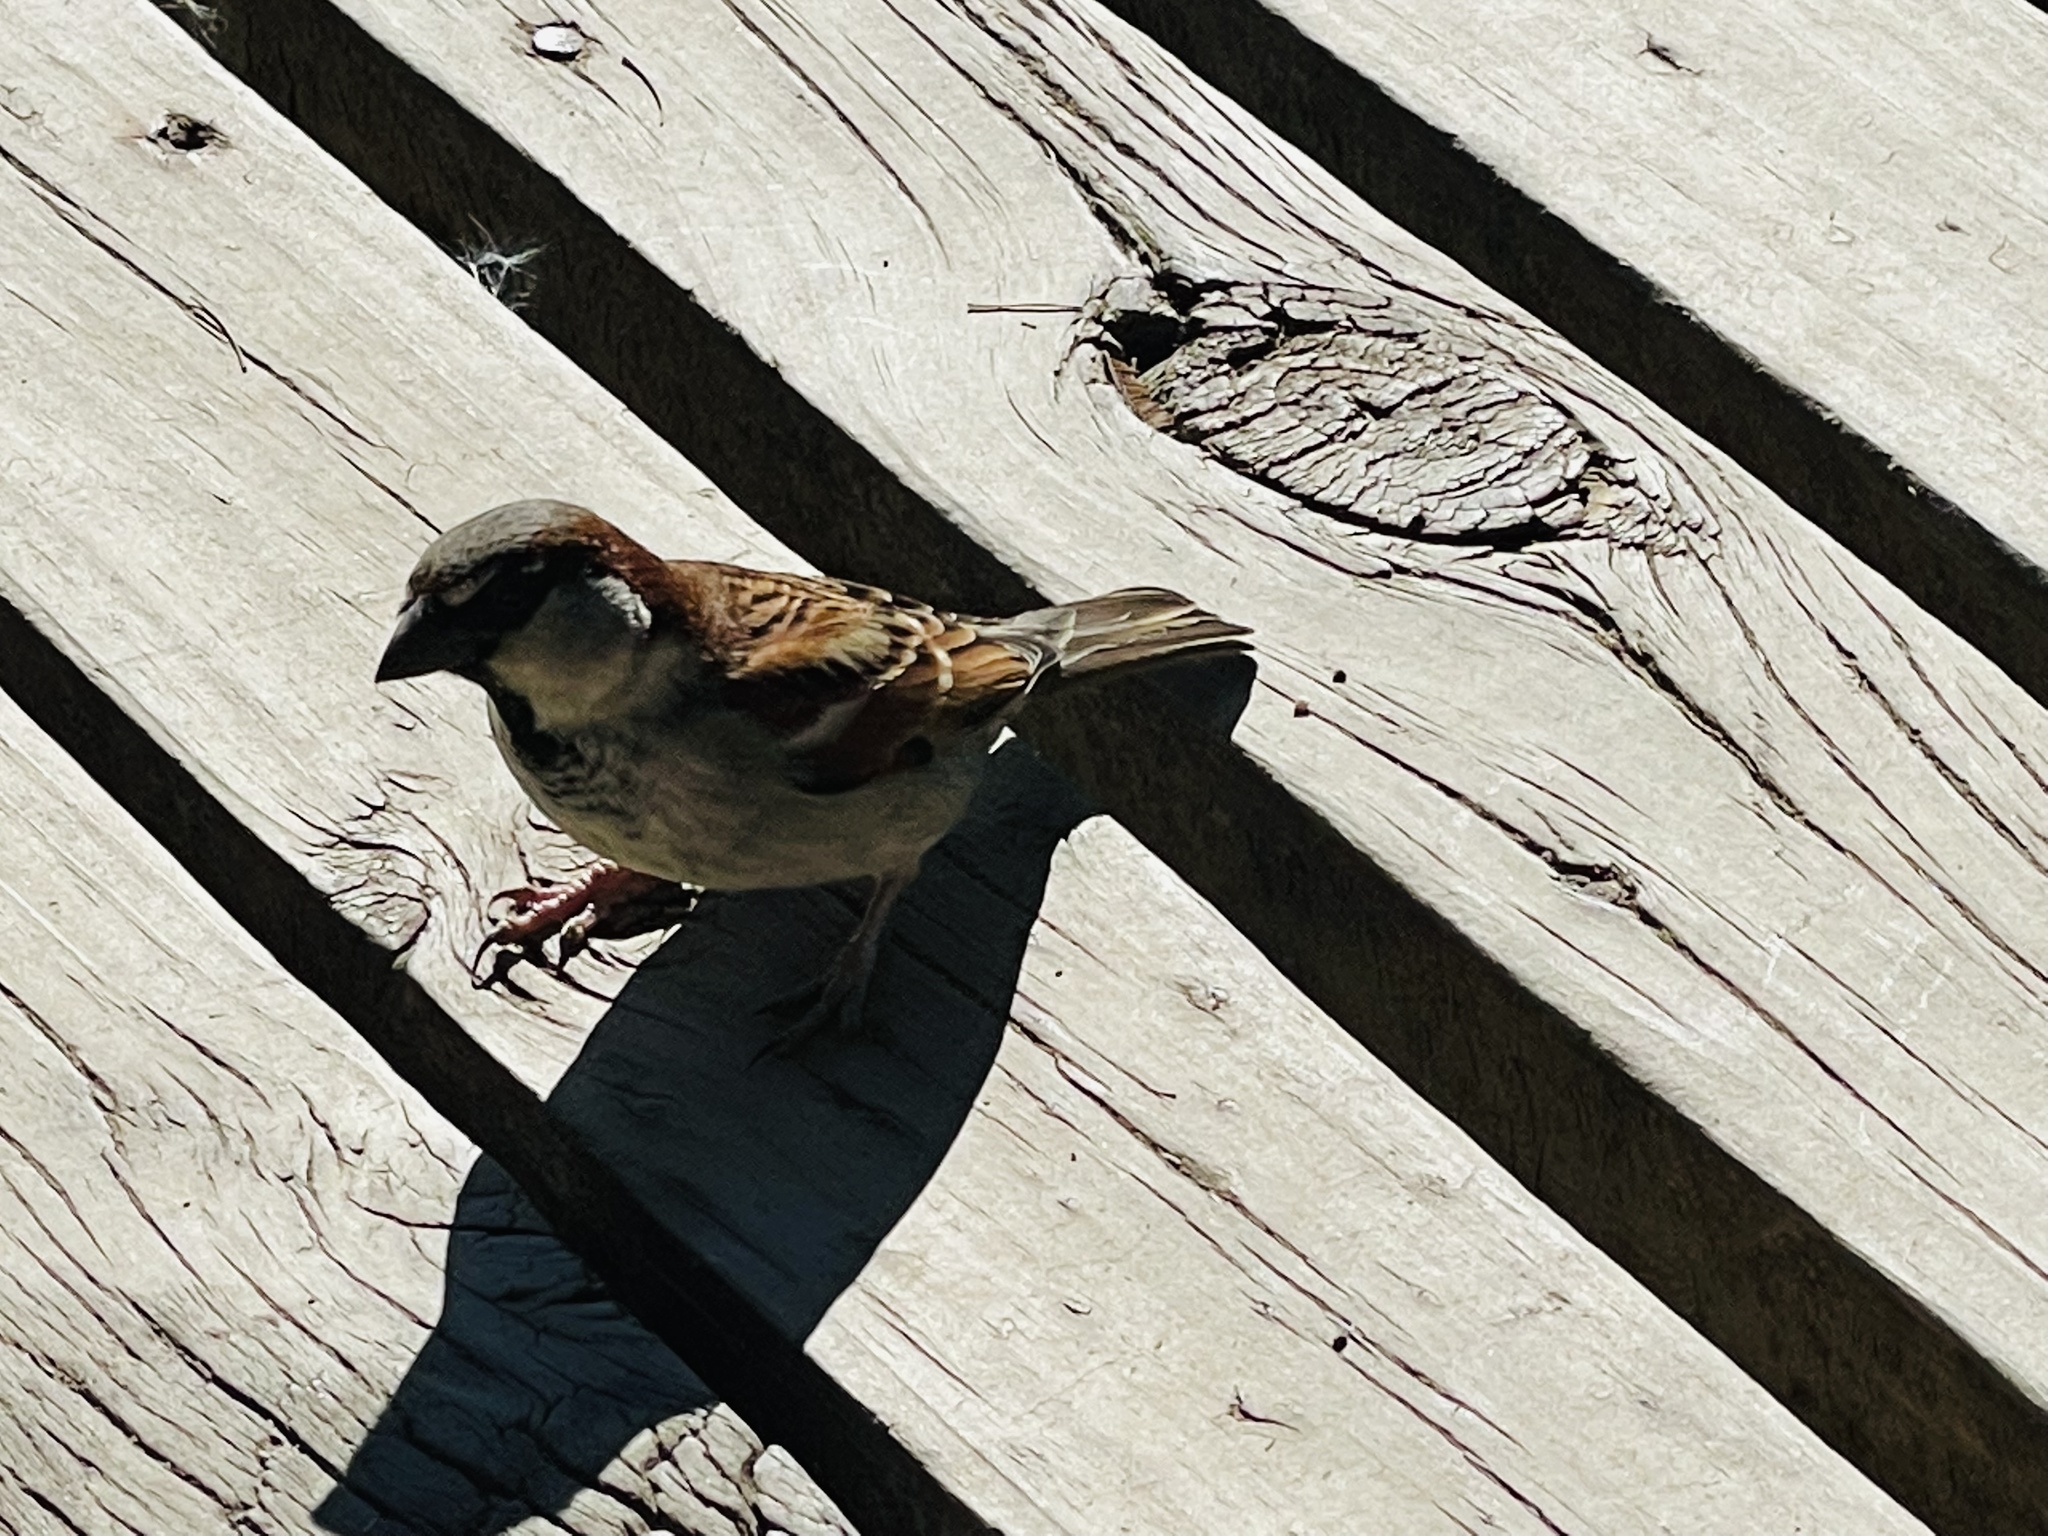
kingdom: Animalia
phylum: Chordata
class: Aves
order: Passeriformes
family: Passeridae
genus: Passer
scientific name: Passer domesticus
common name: House sparrow
